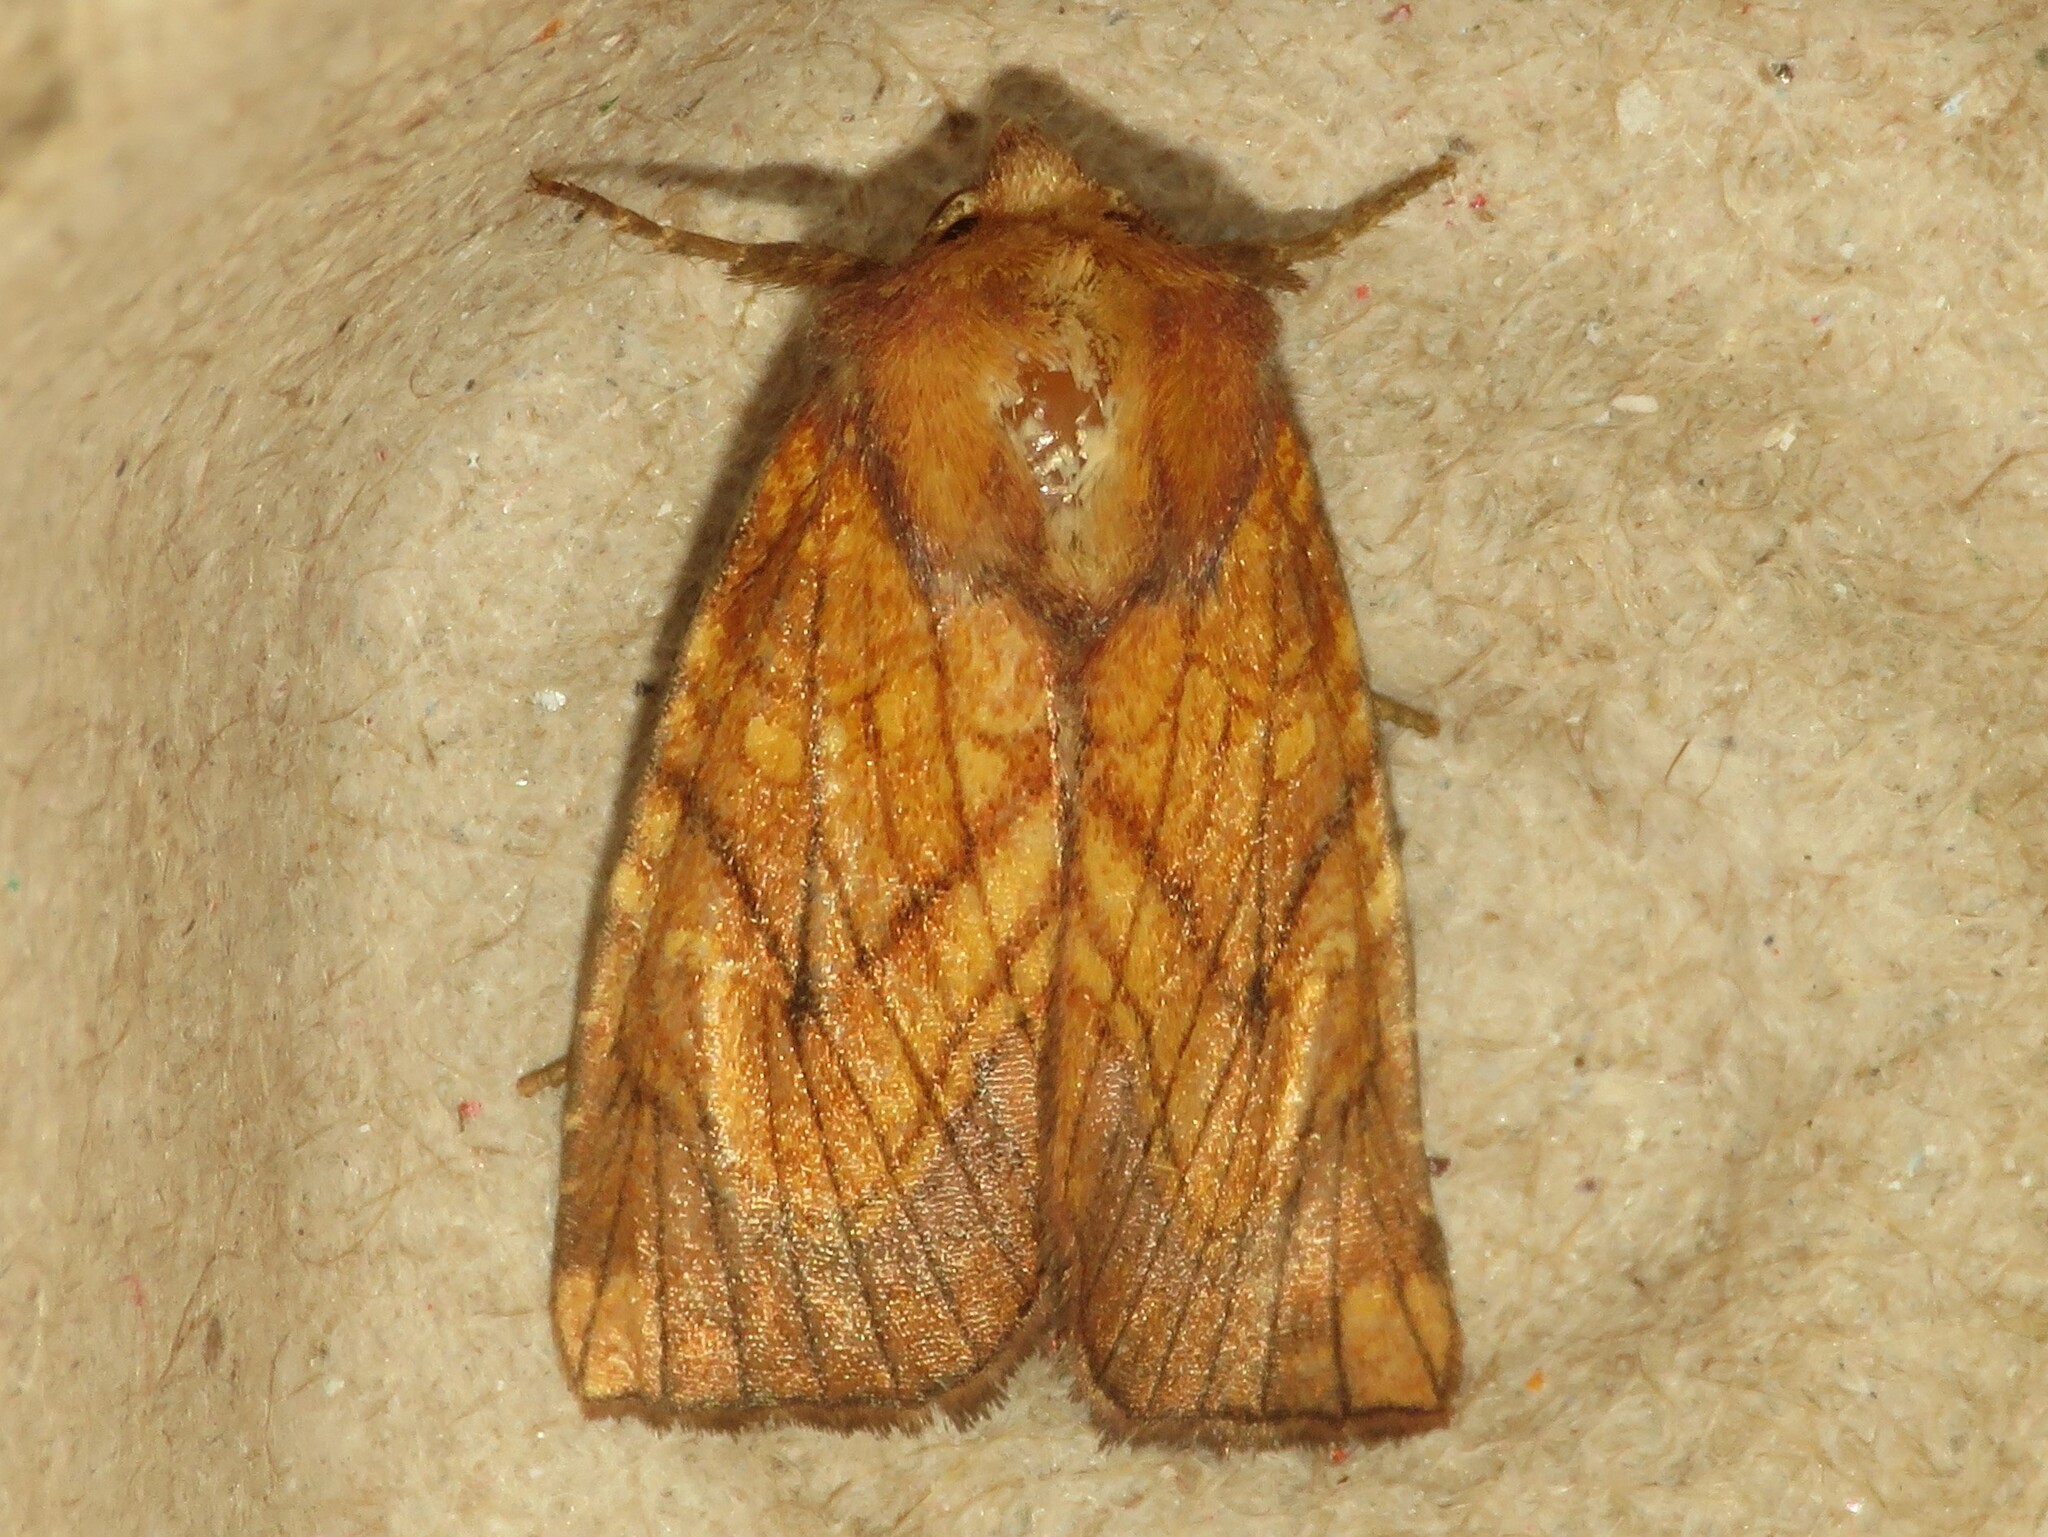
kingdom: Animalia
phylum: Arthropoda
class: Insecta
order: Lepidoptera
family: Noctuidae
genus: Papaipema
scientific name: Papaipema inquaesita
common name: Sensitive fern borer moth
